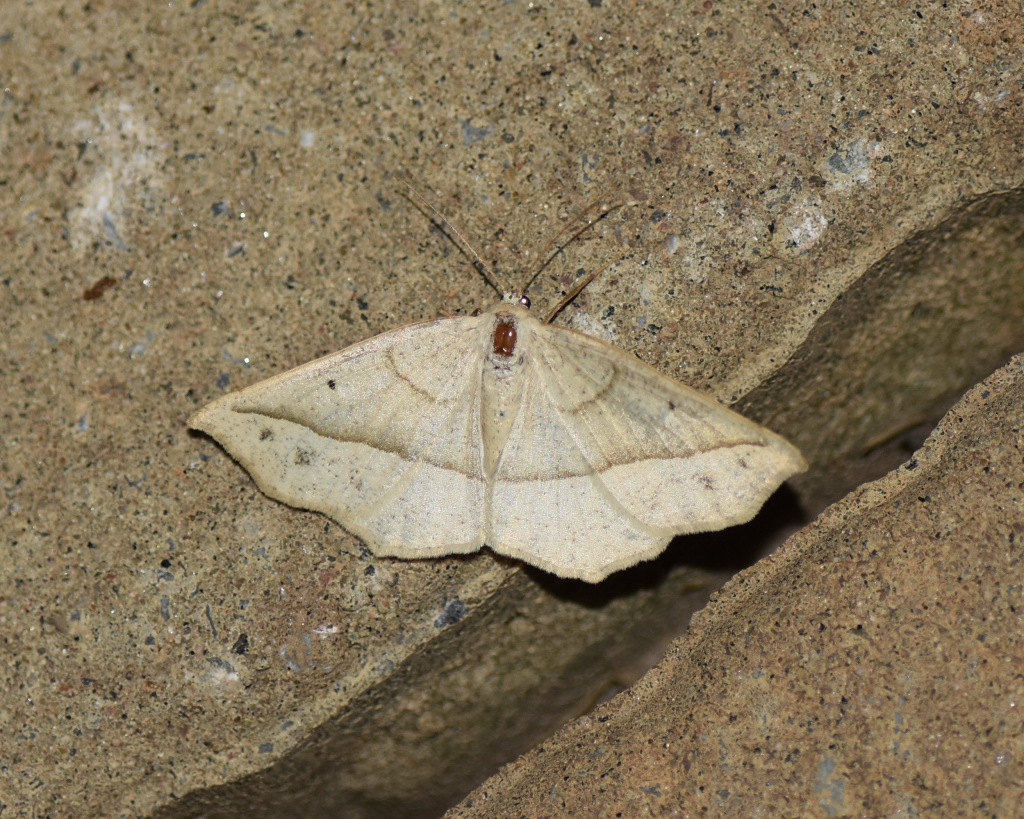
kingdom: Animalia
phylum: Arthropoda
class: Insecta
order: Lepidoptera
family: Geometridae
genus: Eusarca
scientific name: Eusarca confusaria
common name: Confused eusarca
